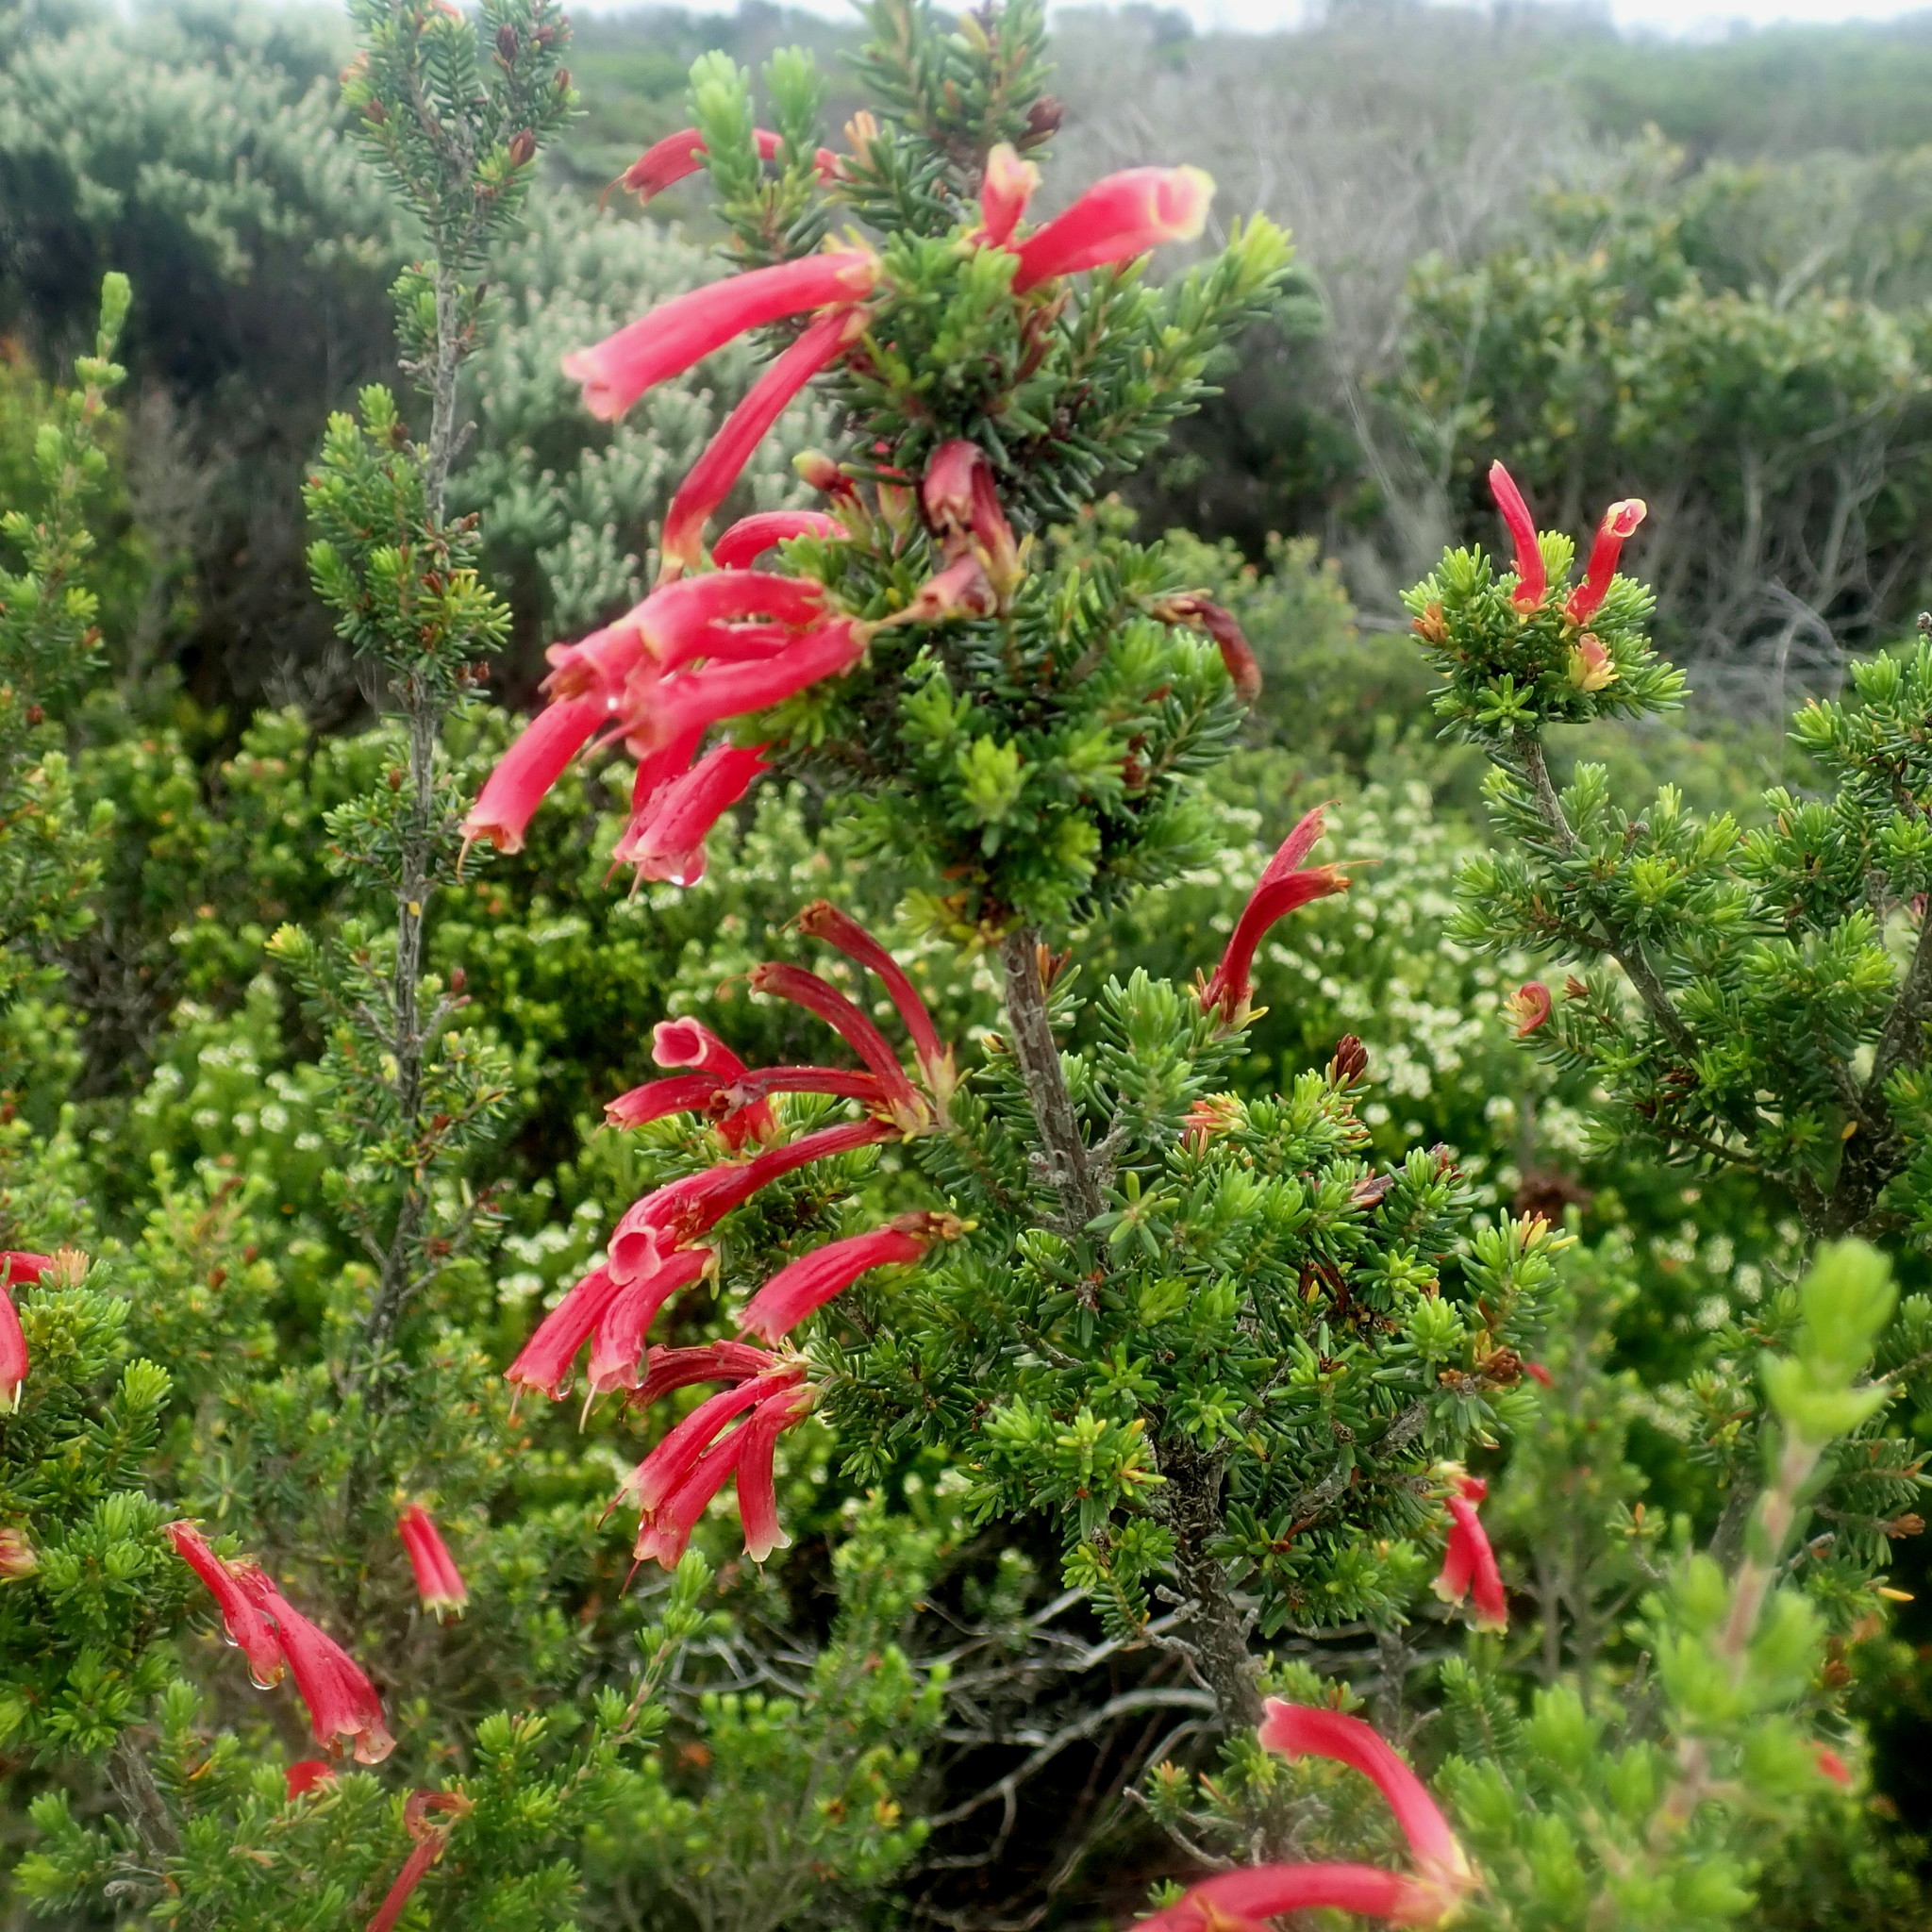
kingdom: Plantae
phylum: Tracheophyta
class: Magnoliopsida
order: Ericales
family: Ericaceae
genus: Erica
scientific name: Erica discolor
